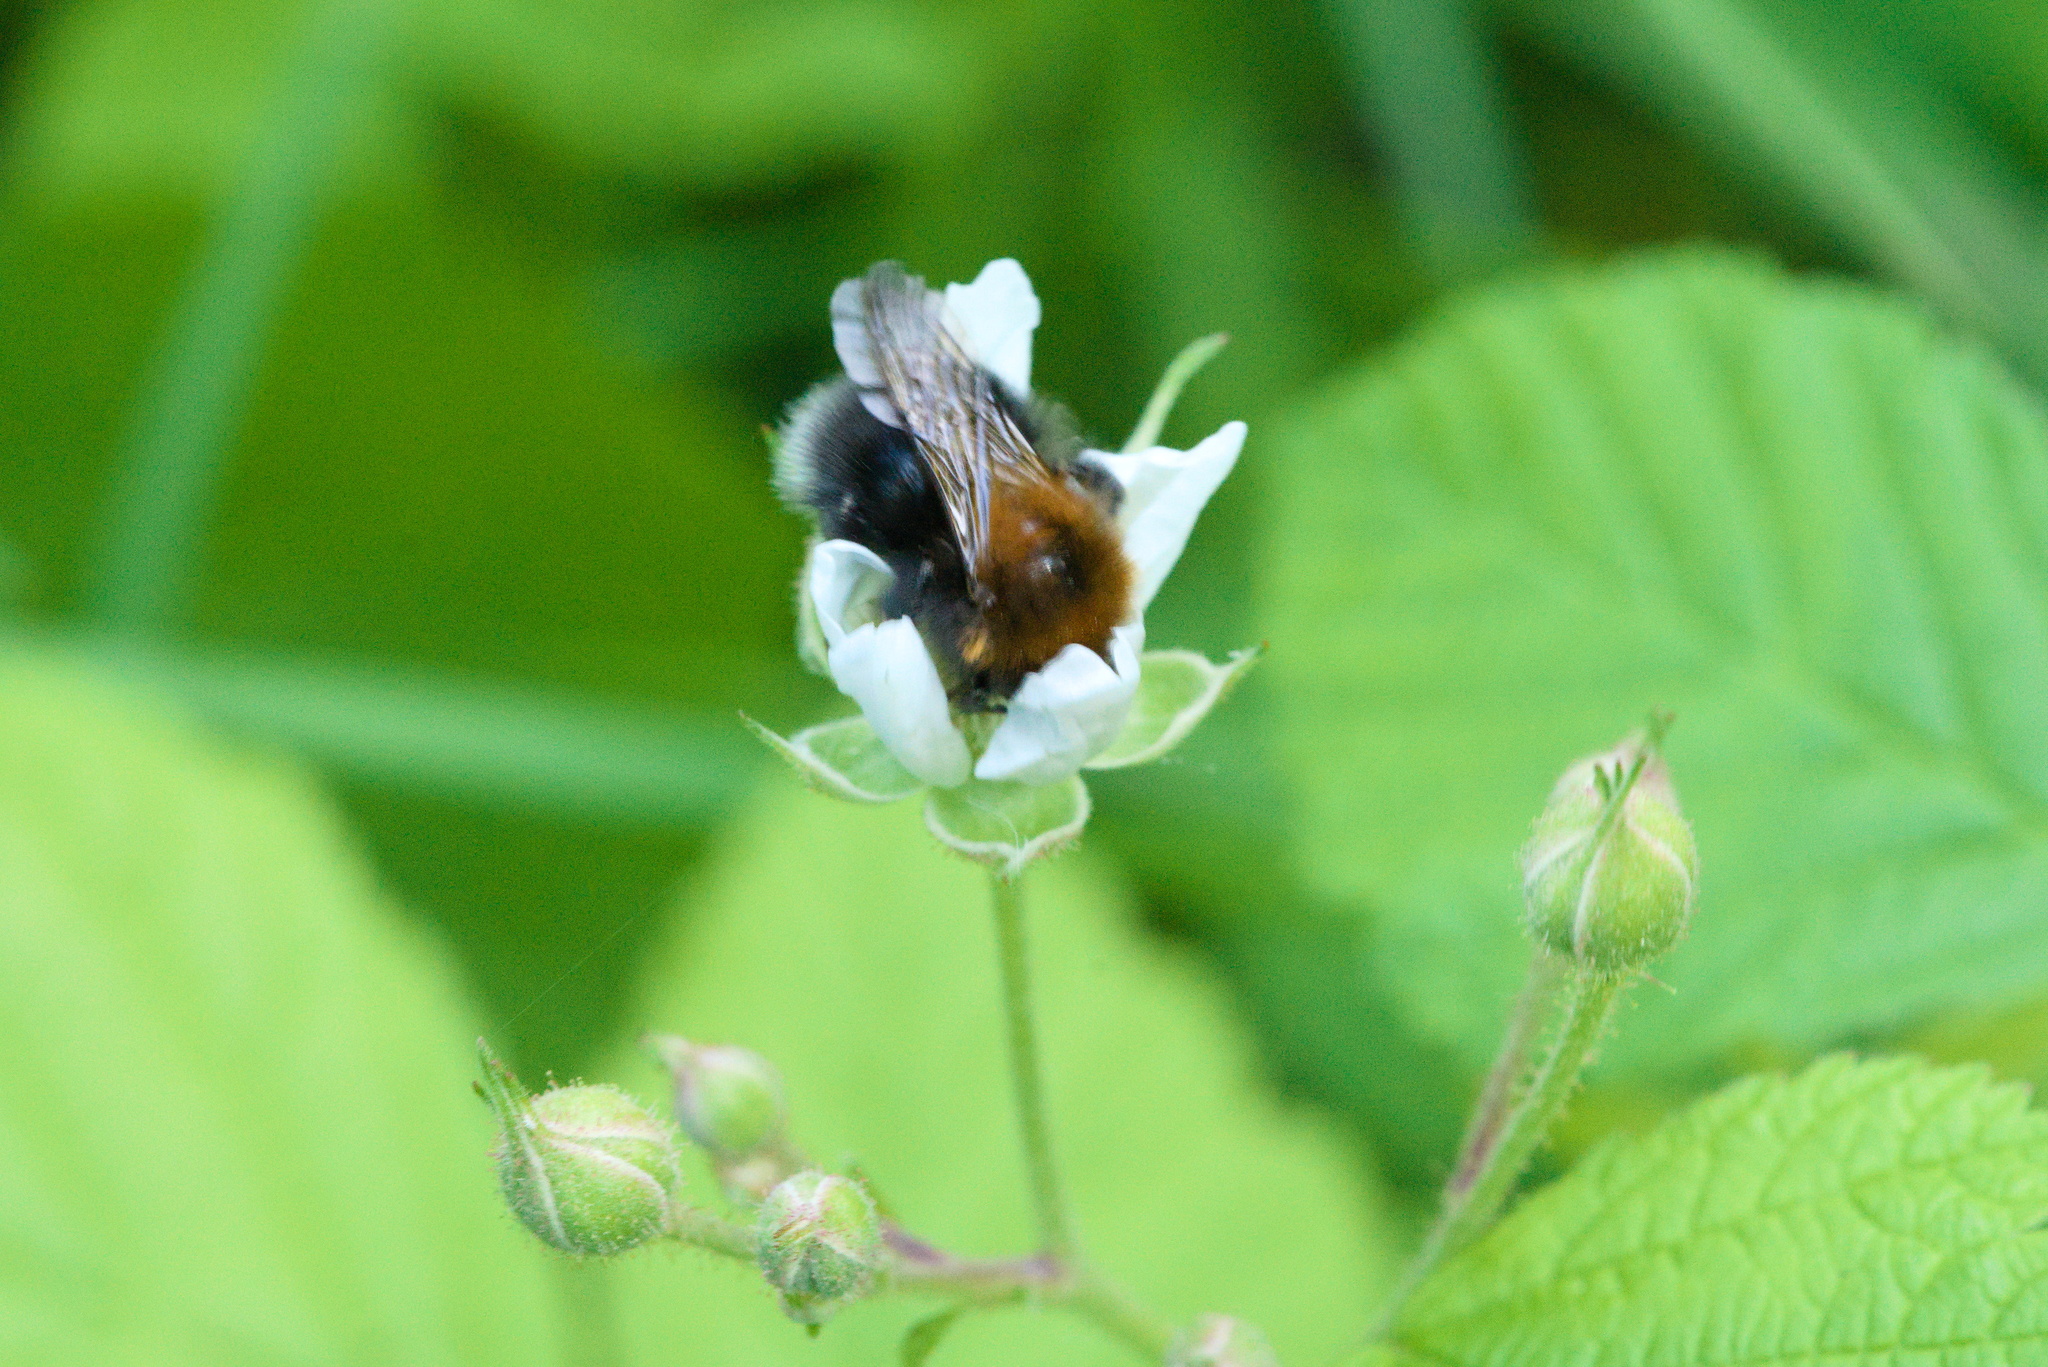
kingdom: Animalia
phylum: Arthropoda
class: Insecta
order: Hymenoptera
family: Apidae
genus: Bombus
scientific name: Bombus hypnorum
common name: New garden bumblebee
